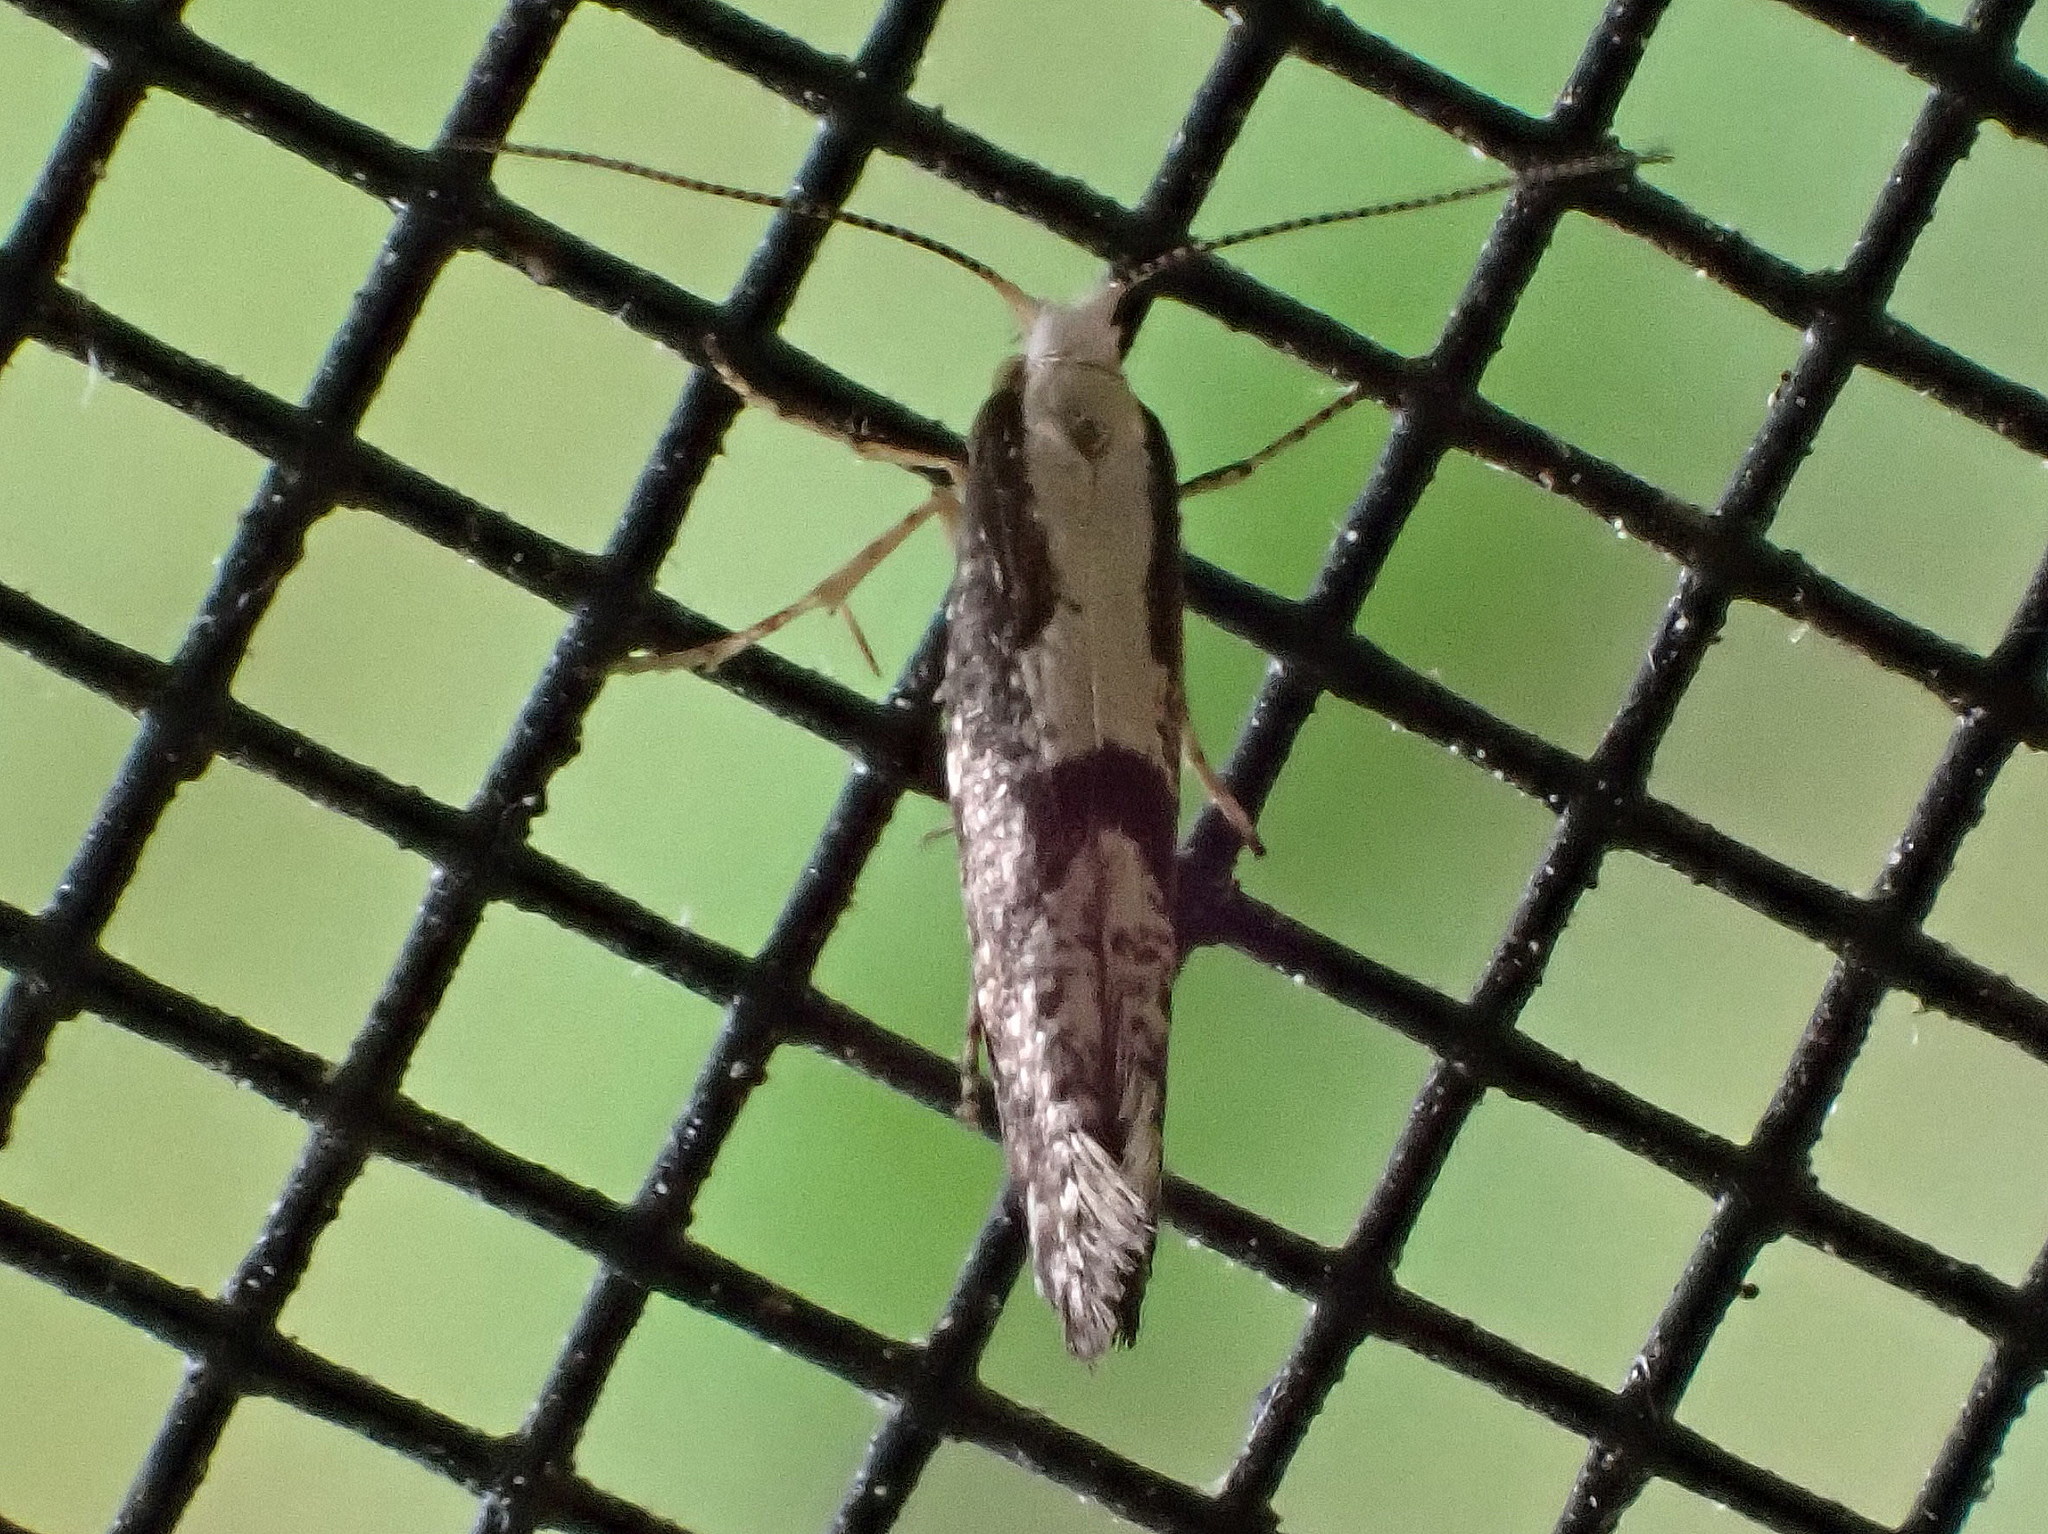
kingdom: Animalia
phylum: Arthropoda
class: Insecta
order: Lepidoptera
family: Argyresthiidae
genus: Argyresthia
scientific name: Argyresthia conjugella
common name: Apple fruit moth
